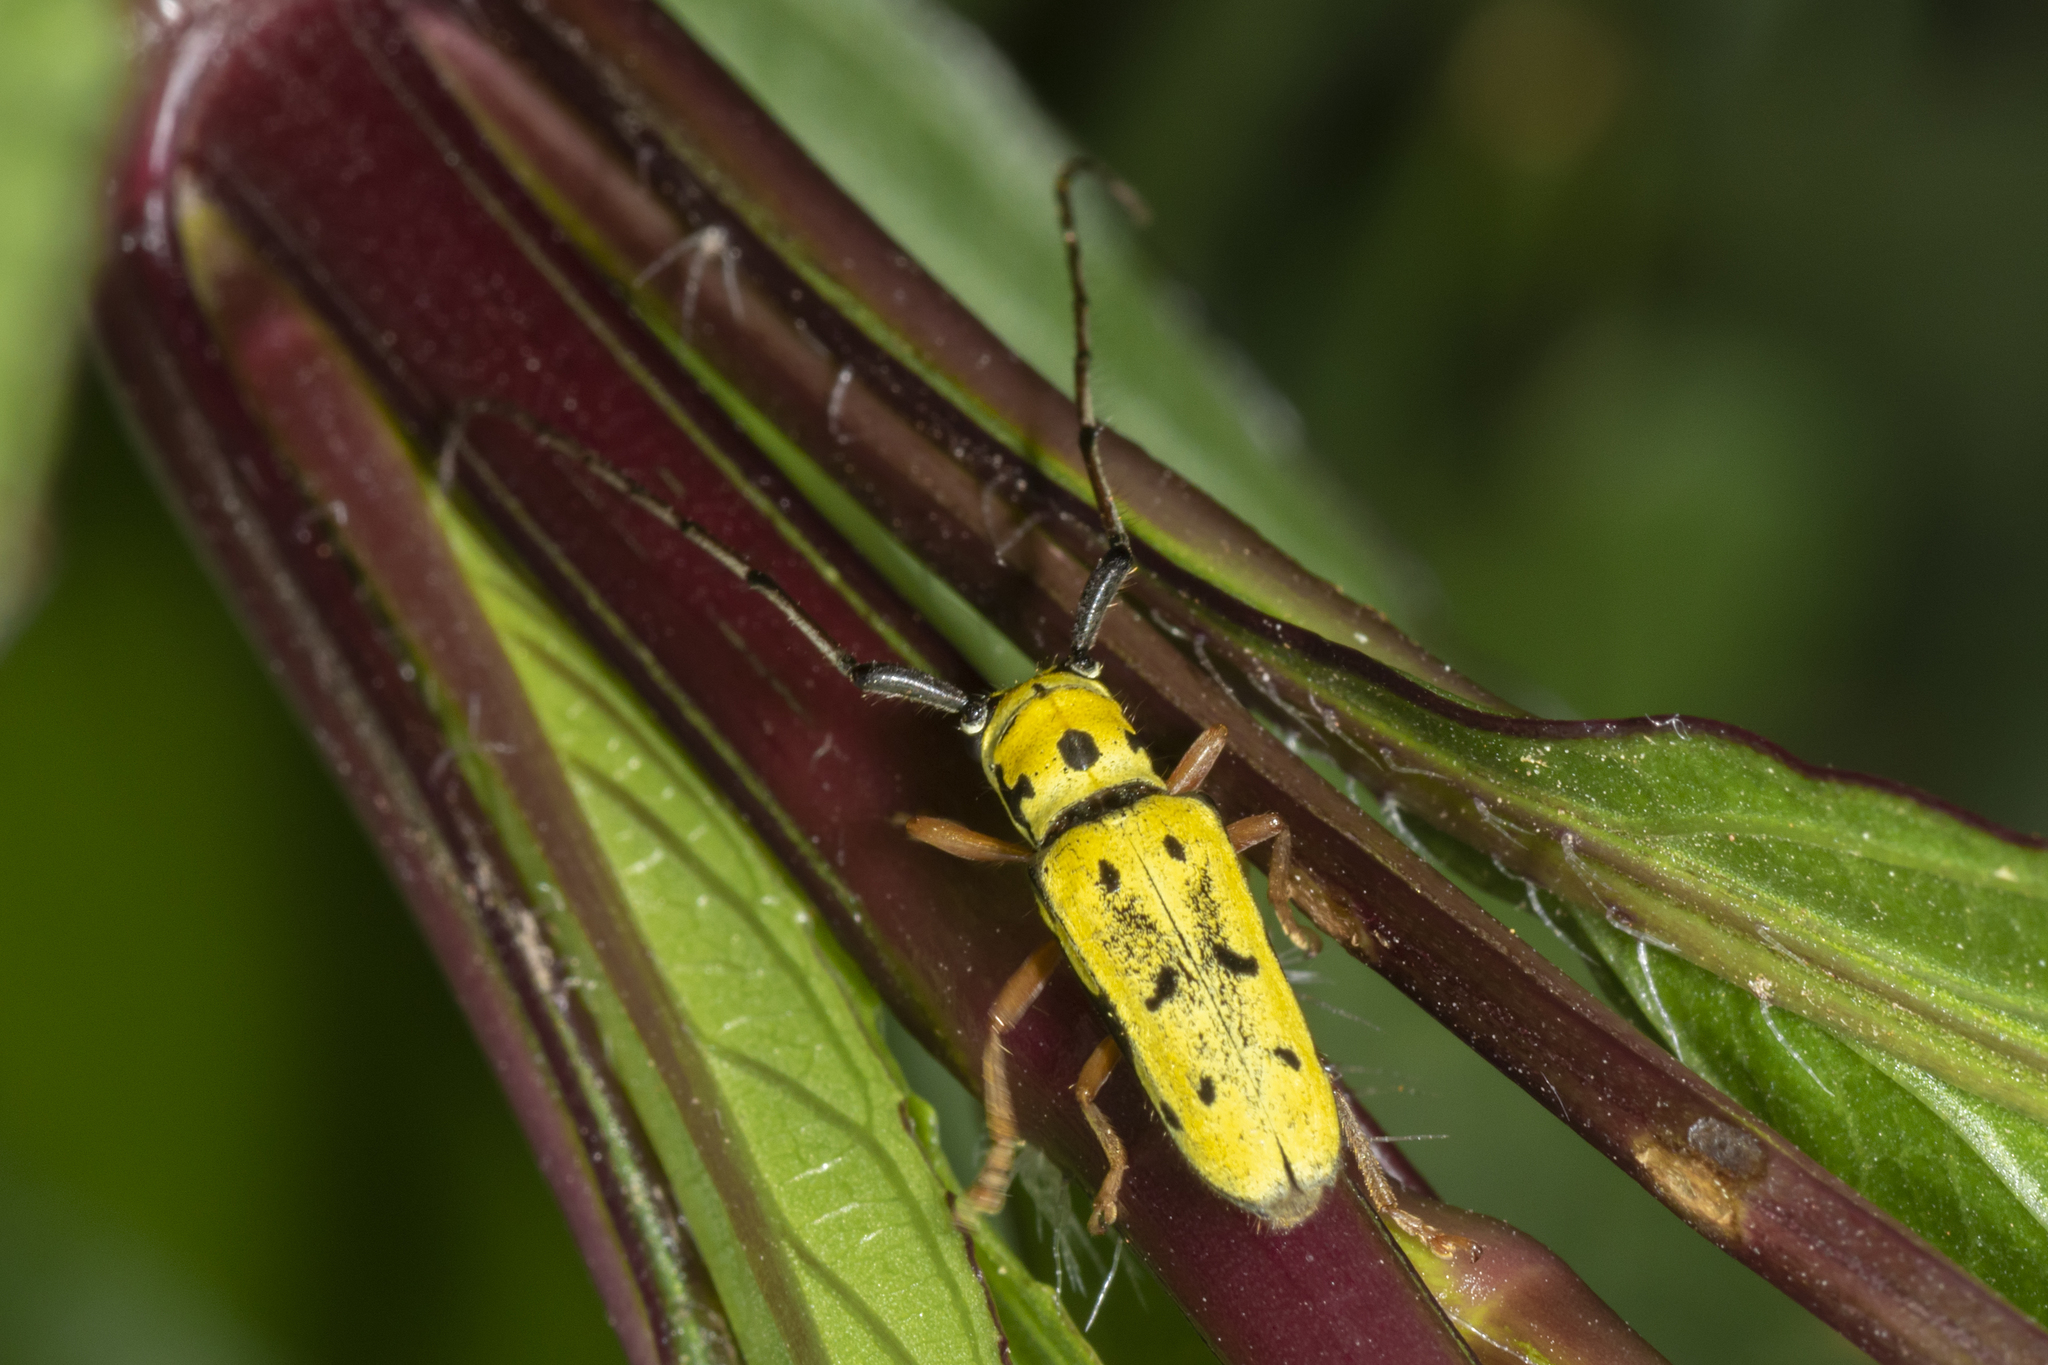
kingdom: Animalia
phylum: Arthropoda
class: Insecta
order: Coleoptera
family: Cerambycidae
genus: Zeale
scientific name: Zeale nigromaculata
